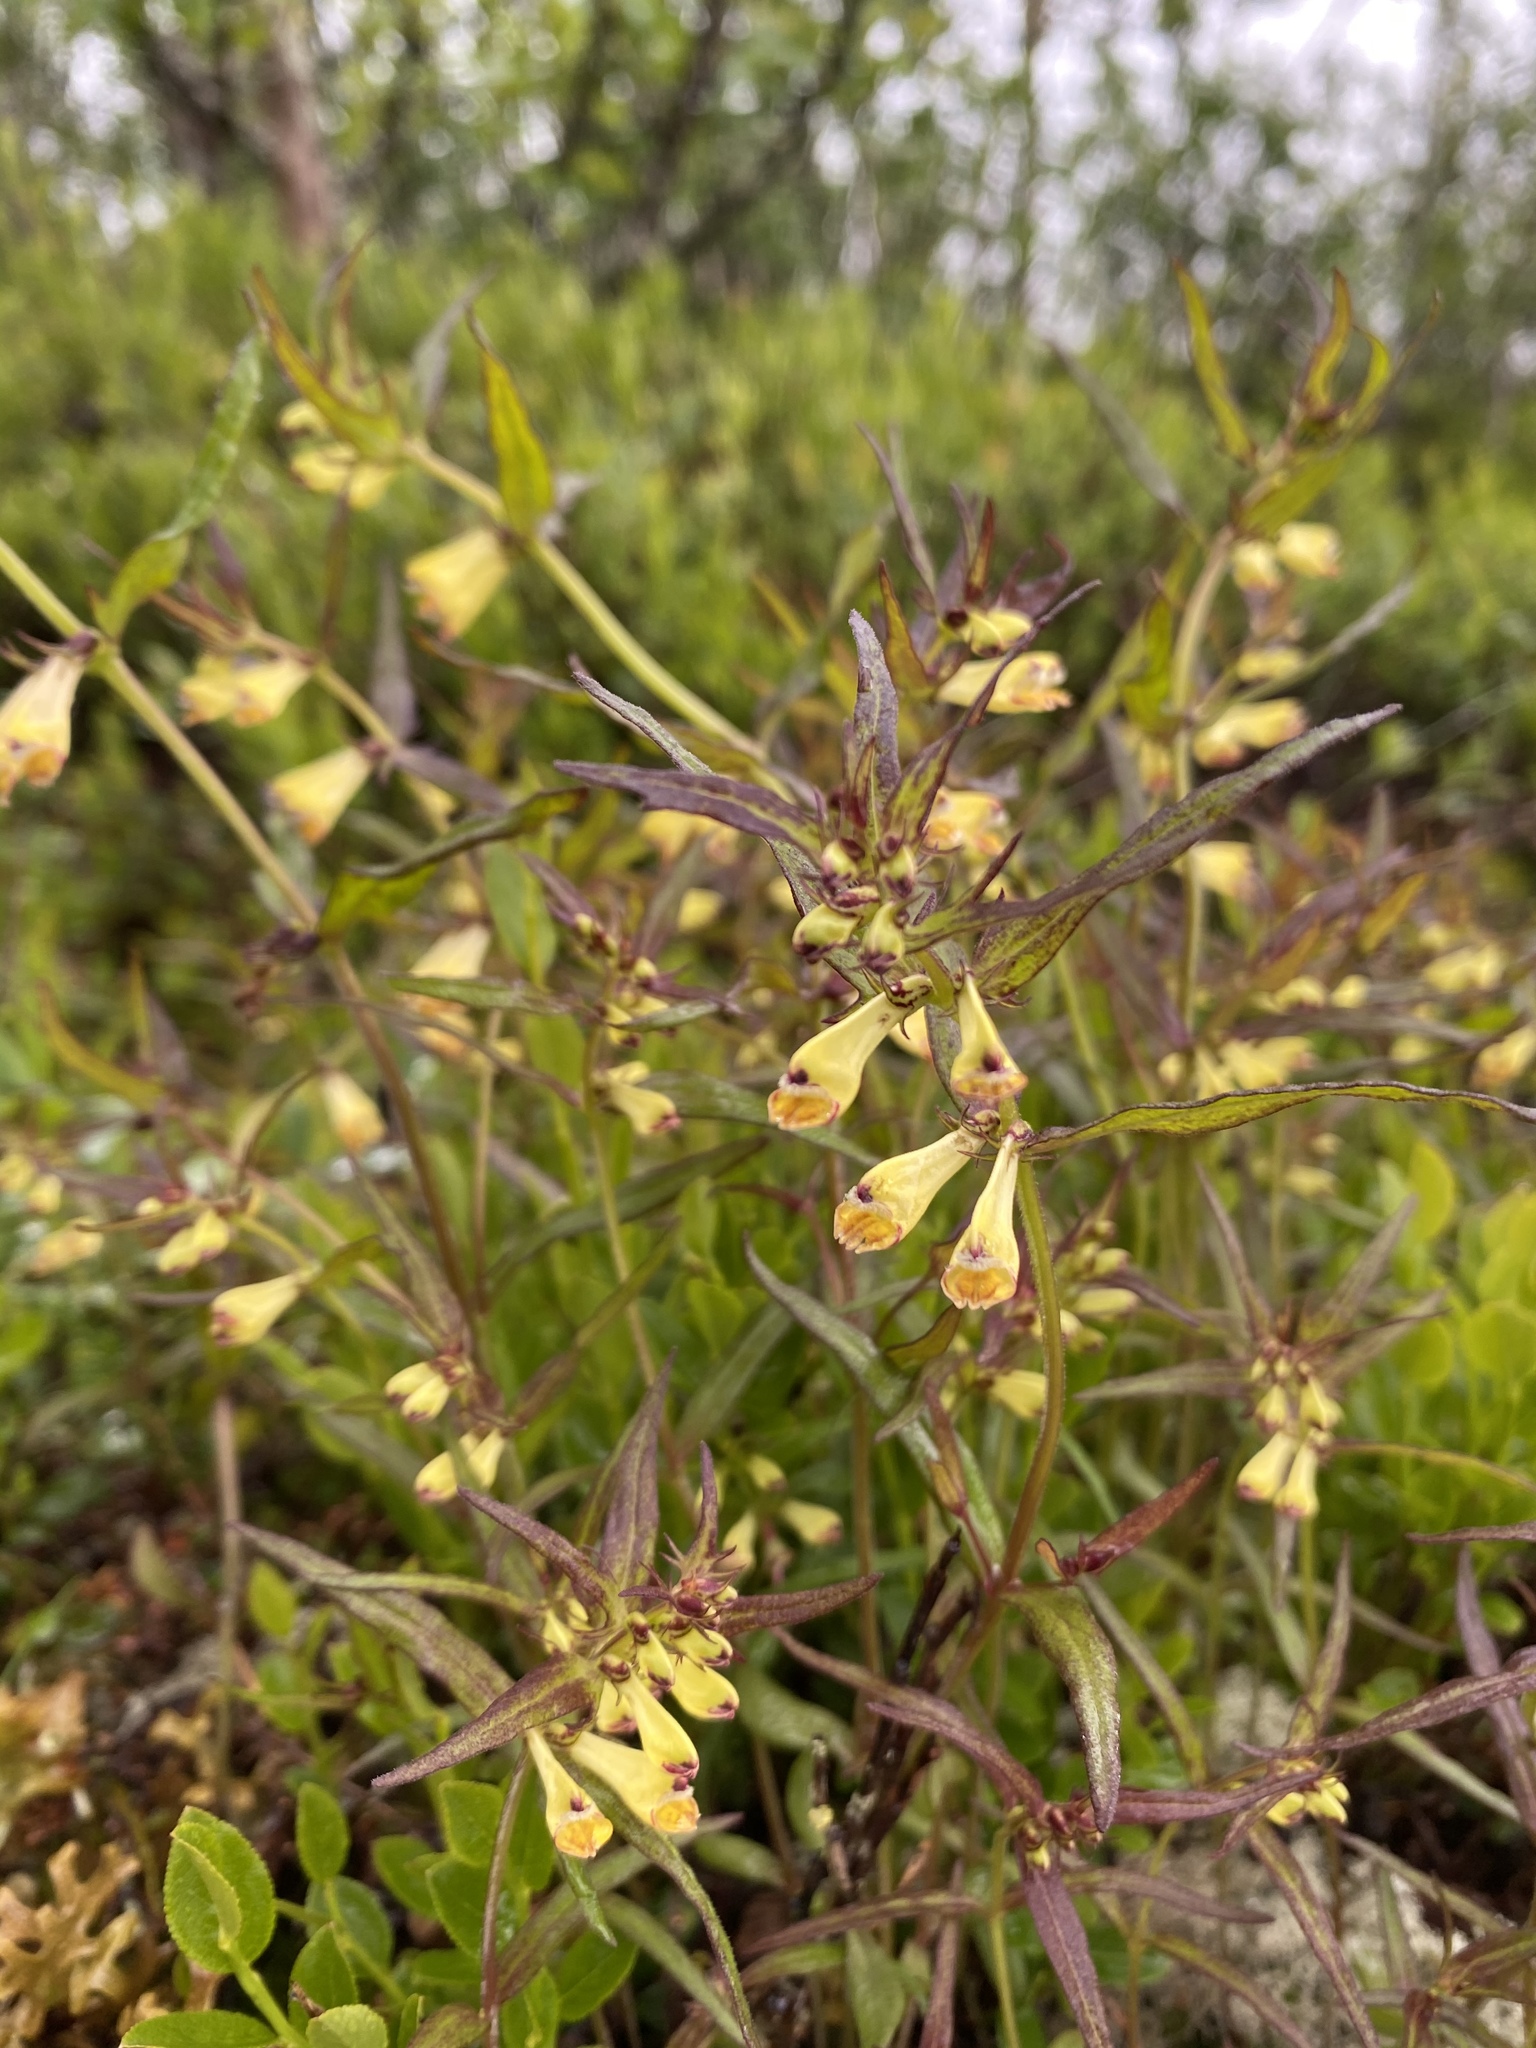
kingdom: Plantae
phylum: Tracheophyta
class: Magnoliopsida
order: Lamiales
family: Orobanchaceae
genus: Melampyrum
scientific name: Melampyrum pratense
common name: Common cow-wheat
